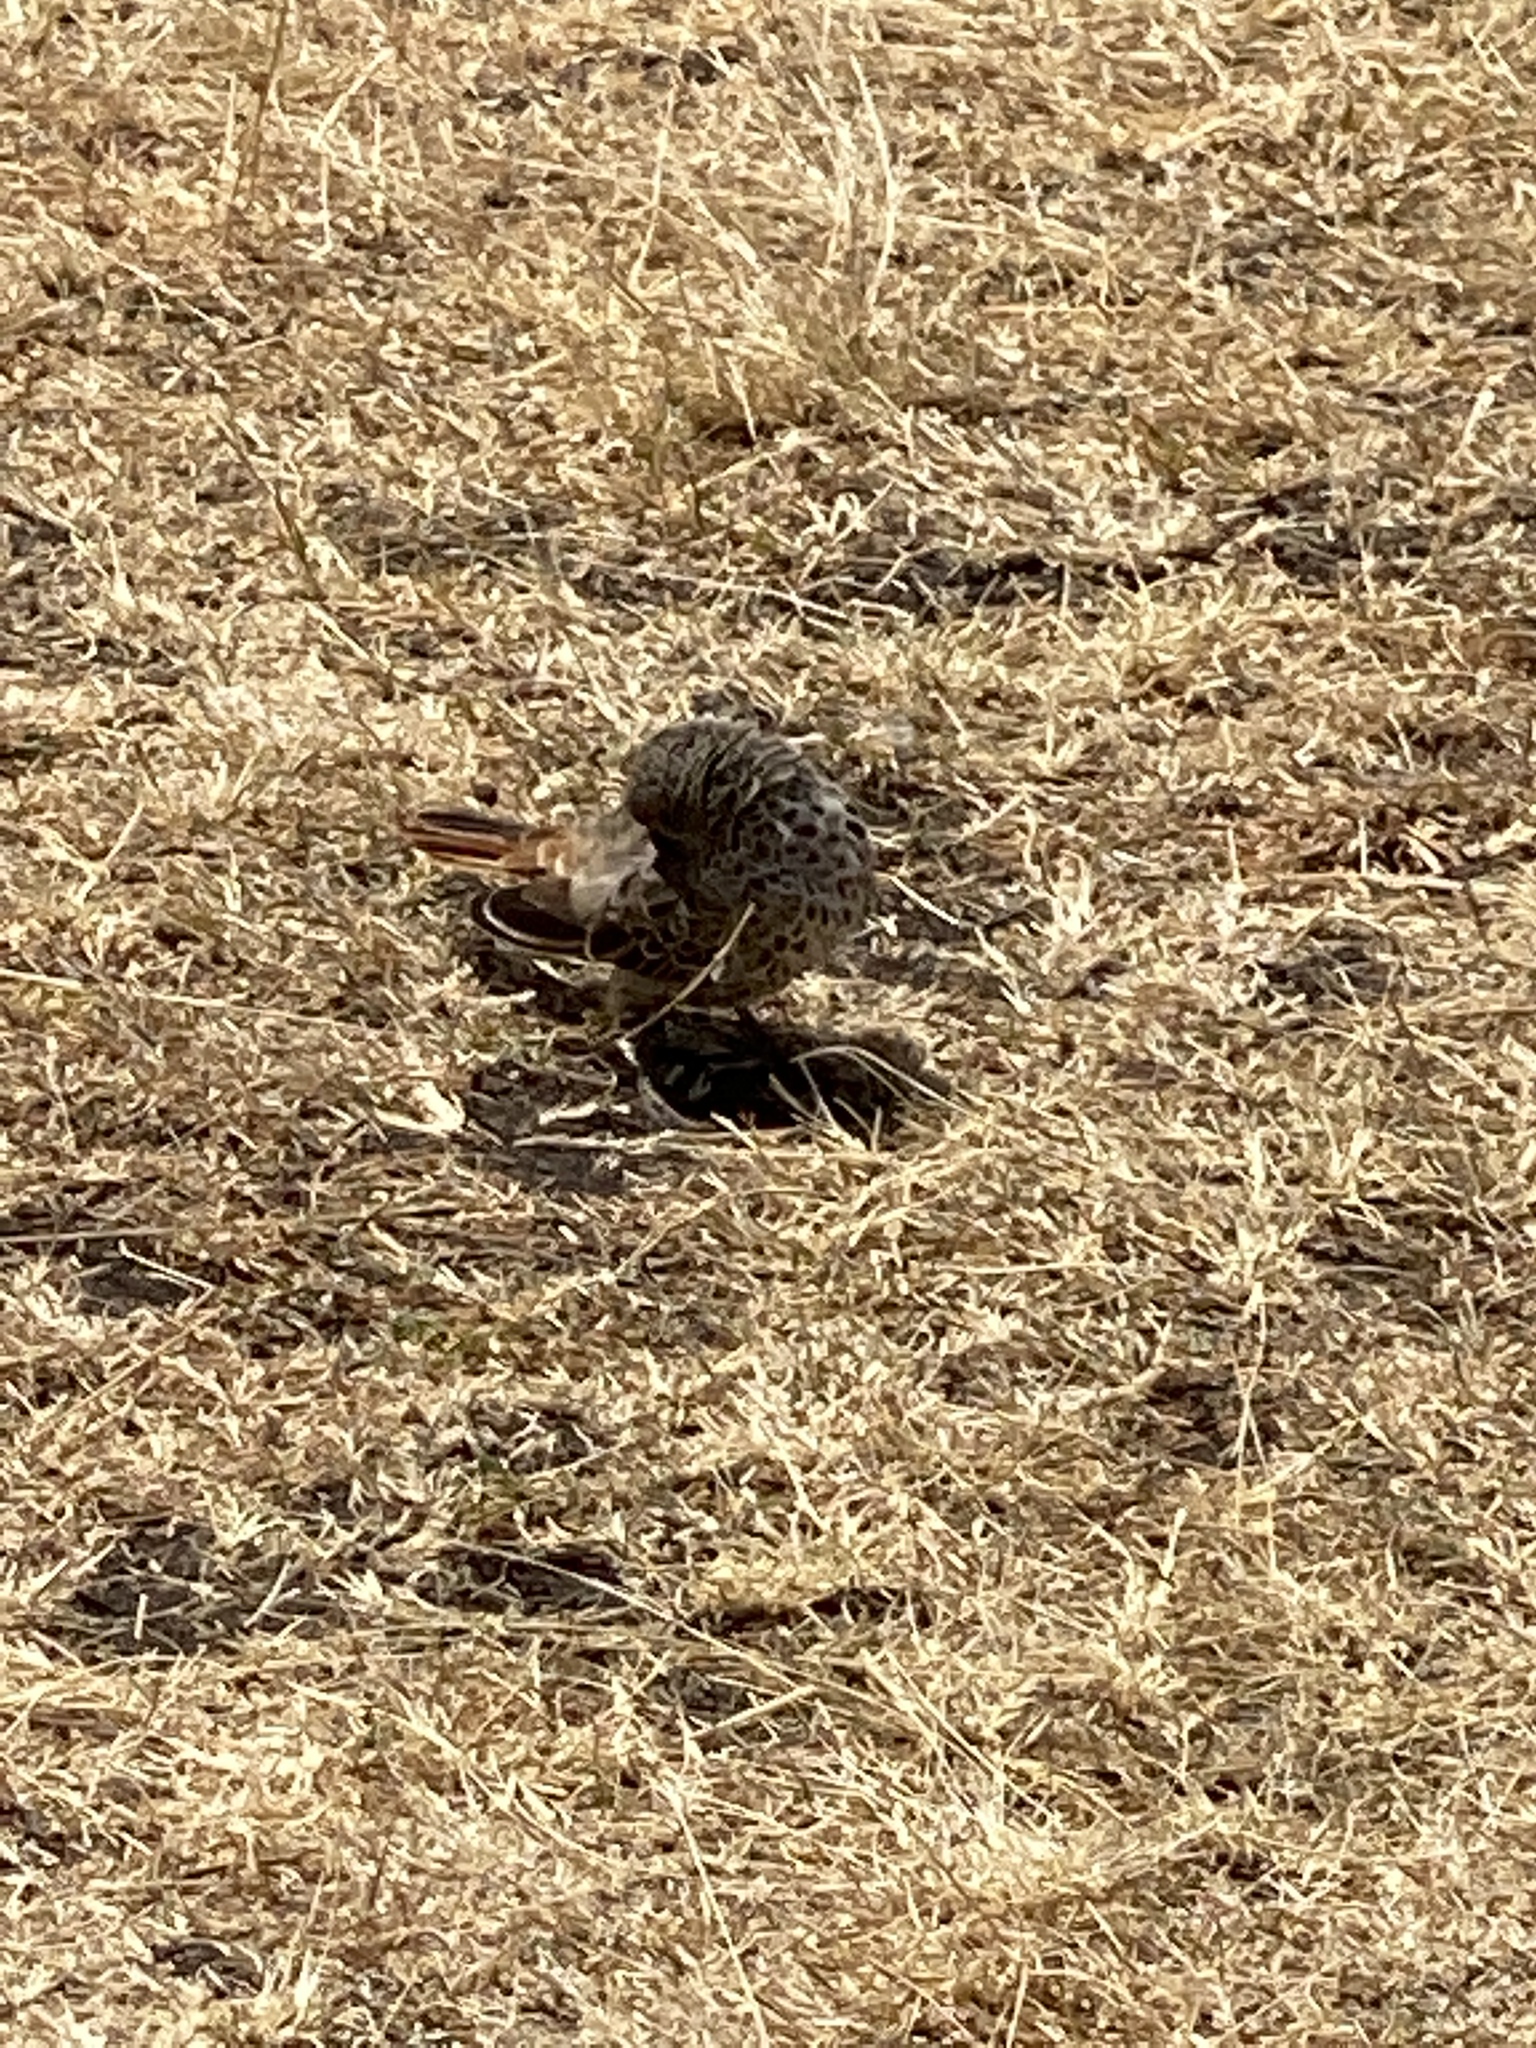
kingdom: Animalia
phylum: Chordata
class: Aves
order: Passeriformes
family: Passeridae
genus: Histurgops
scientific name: Histurgops ruficauda
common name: Rufous-tailed weaver
